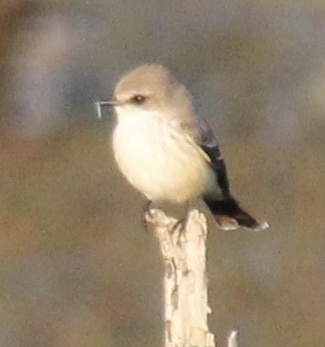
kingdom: Animalia
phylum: Chordata
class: Aves
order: Passeriformes
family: Tyrannidae
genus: Pyrocephalus
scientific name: Pyrocephalus rubinus
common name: Vermilion flycatcher
